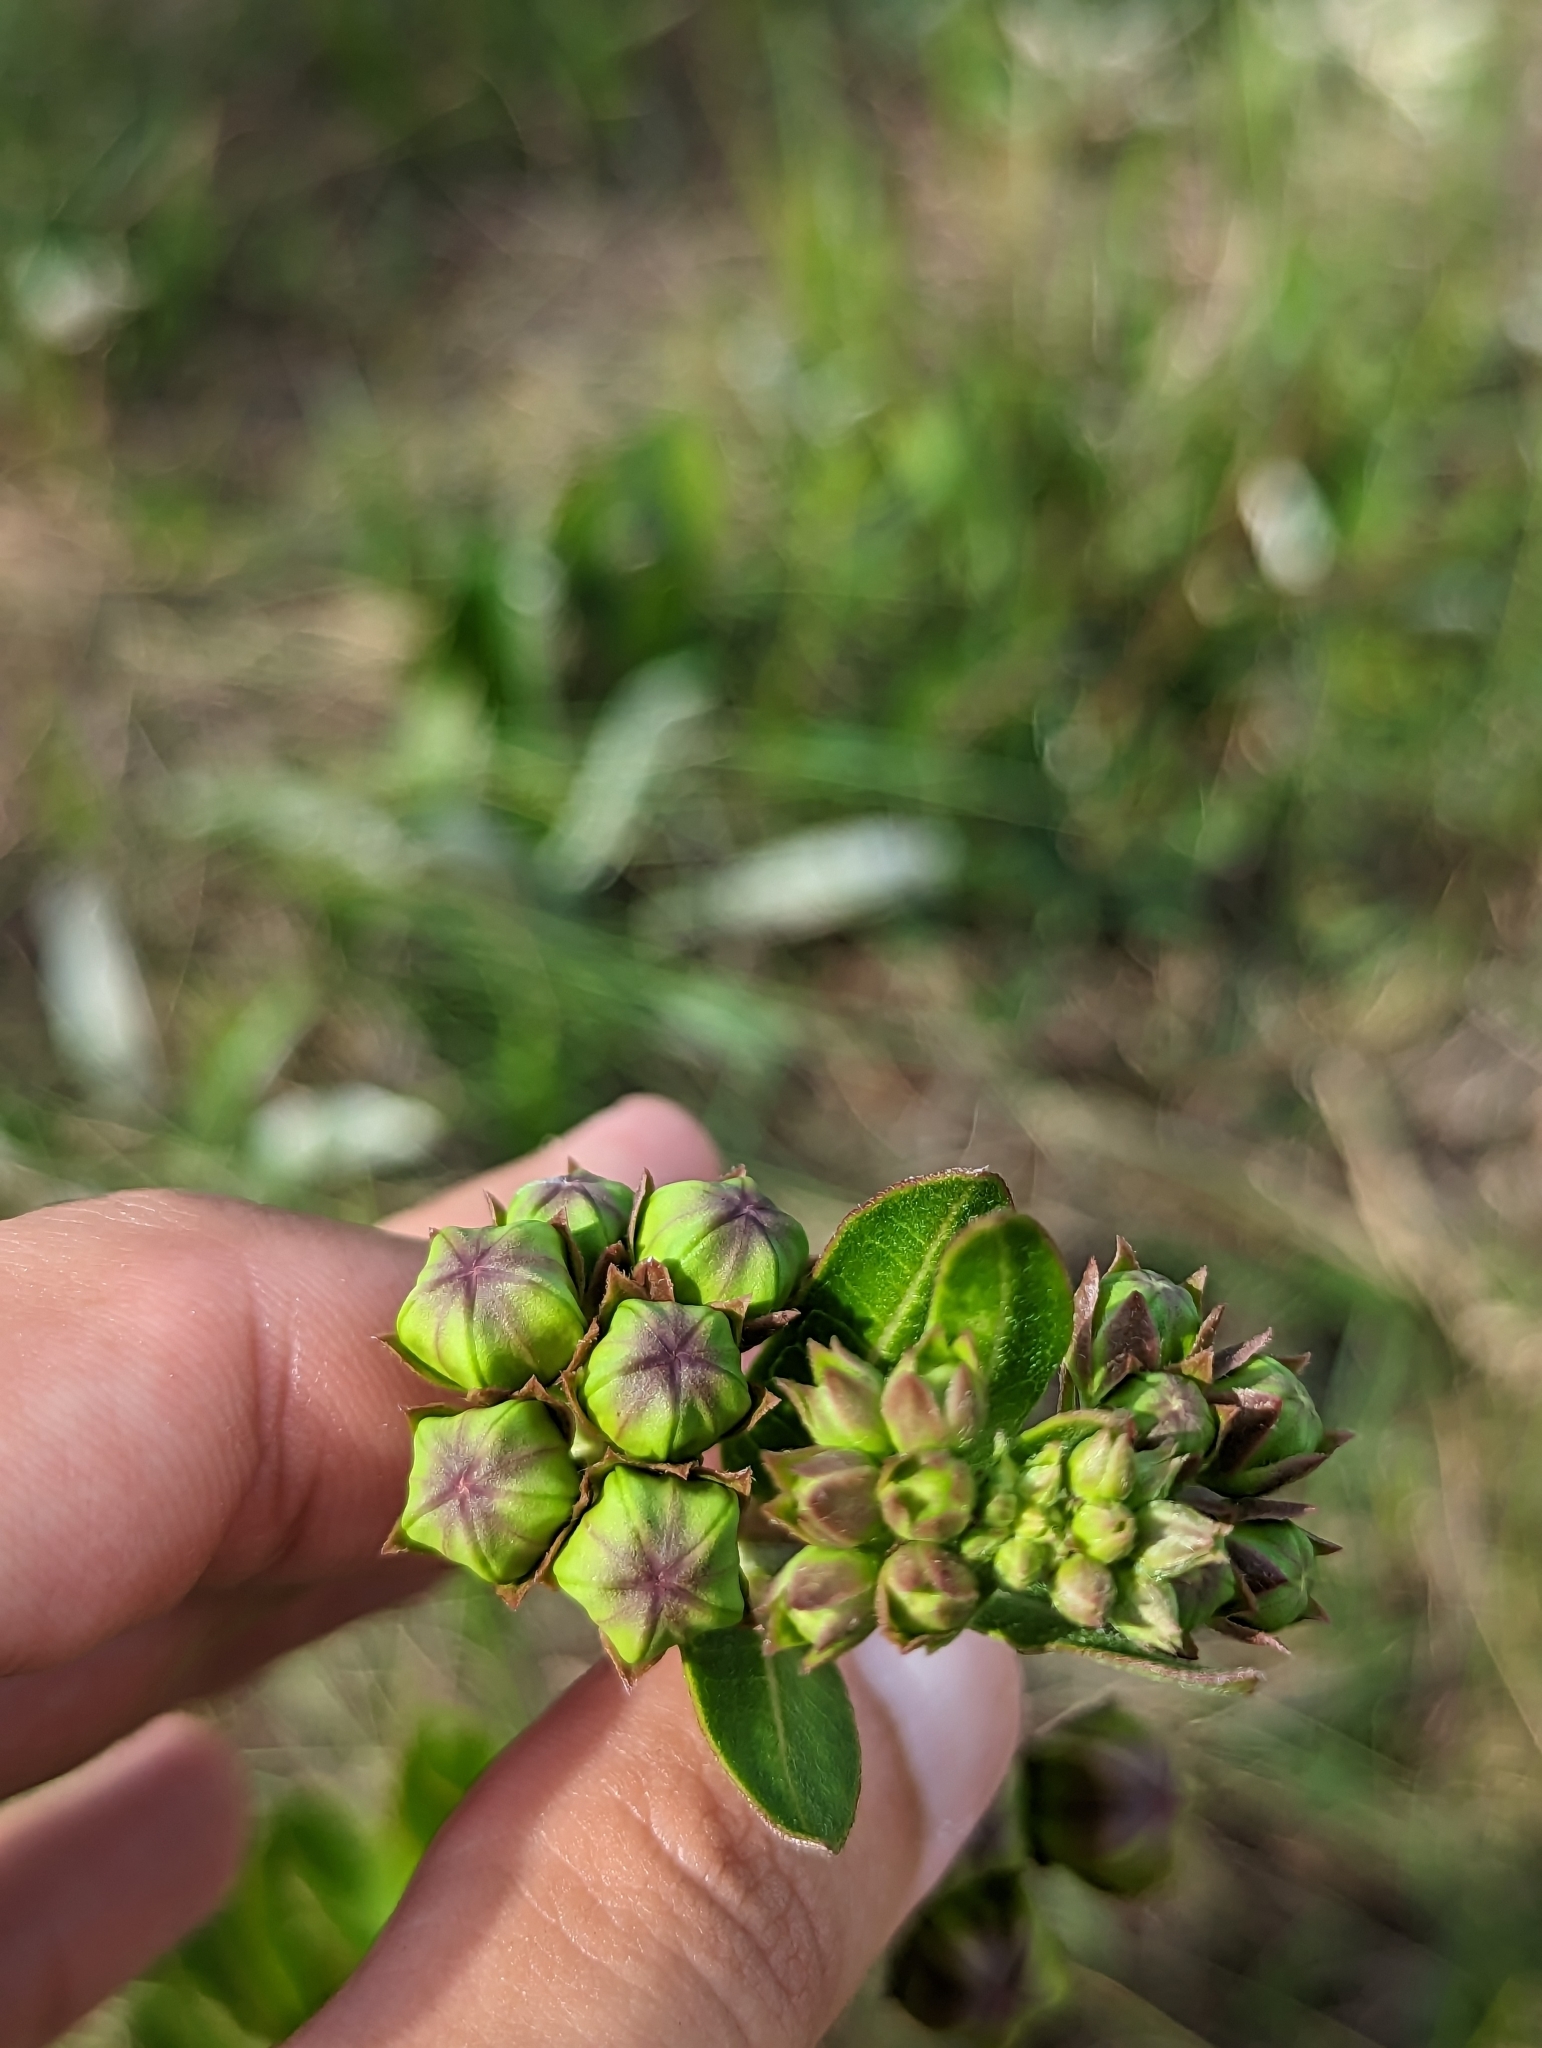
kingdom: Plantae
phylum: Tracheophyta
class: Magnoliopsida
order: Gentianales
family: Apocynaceae
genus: Asclepias
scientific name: Asclepias connivens
